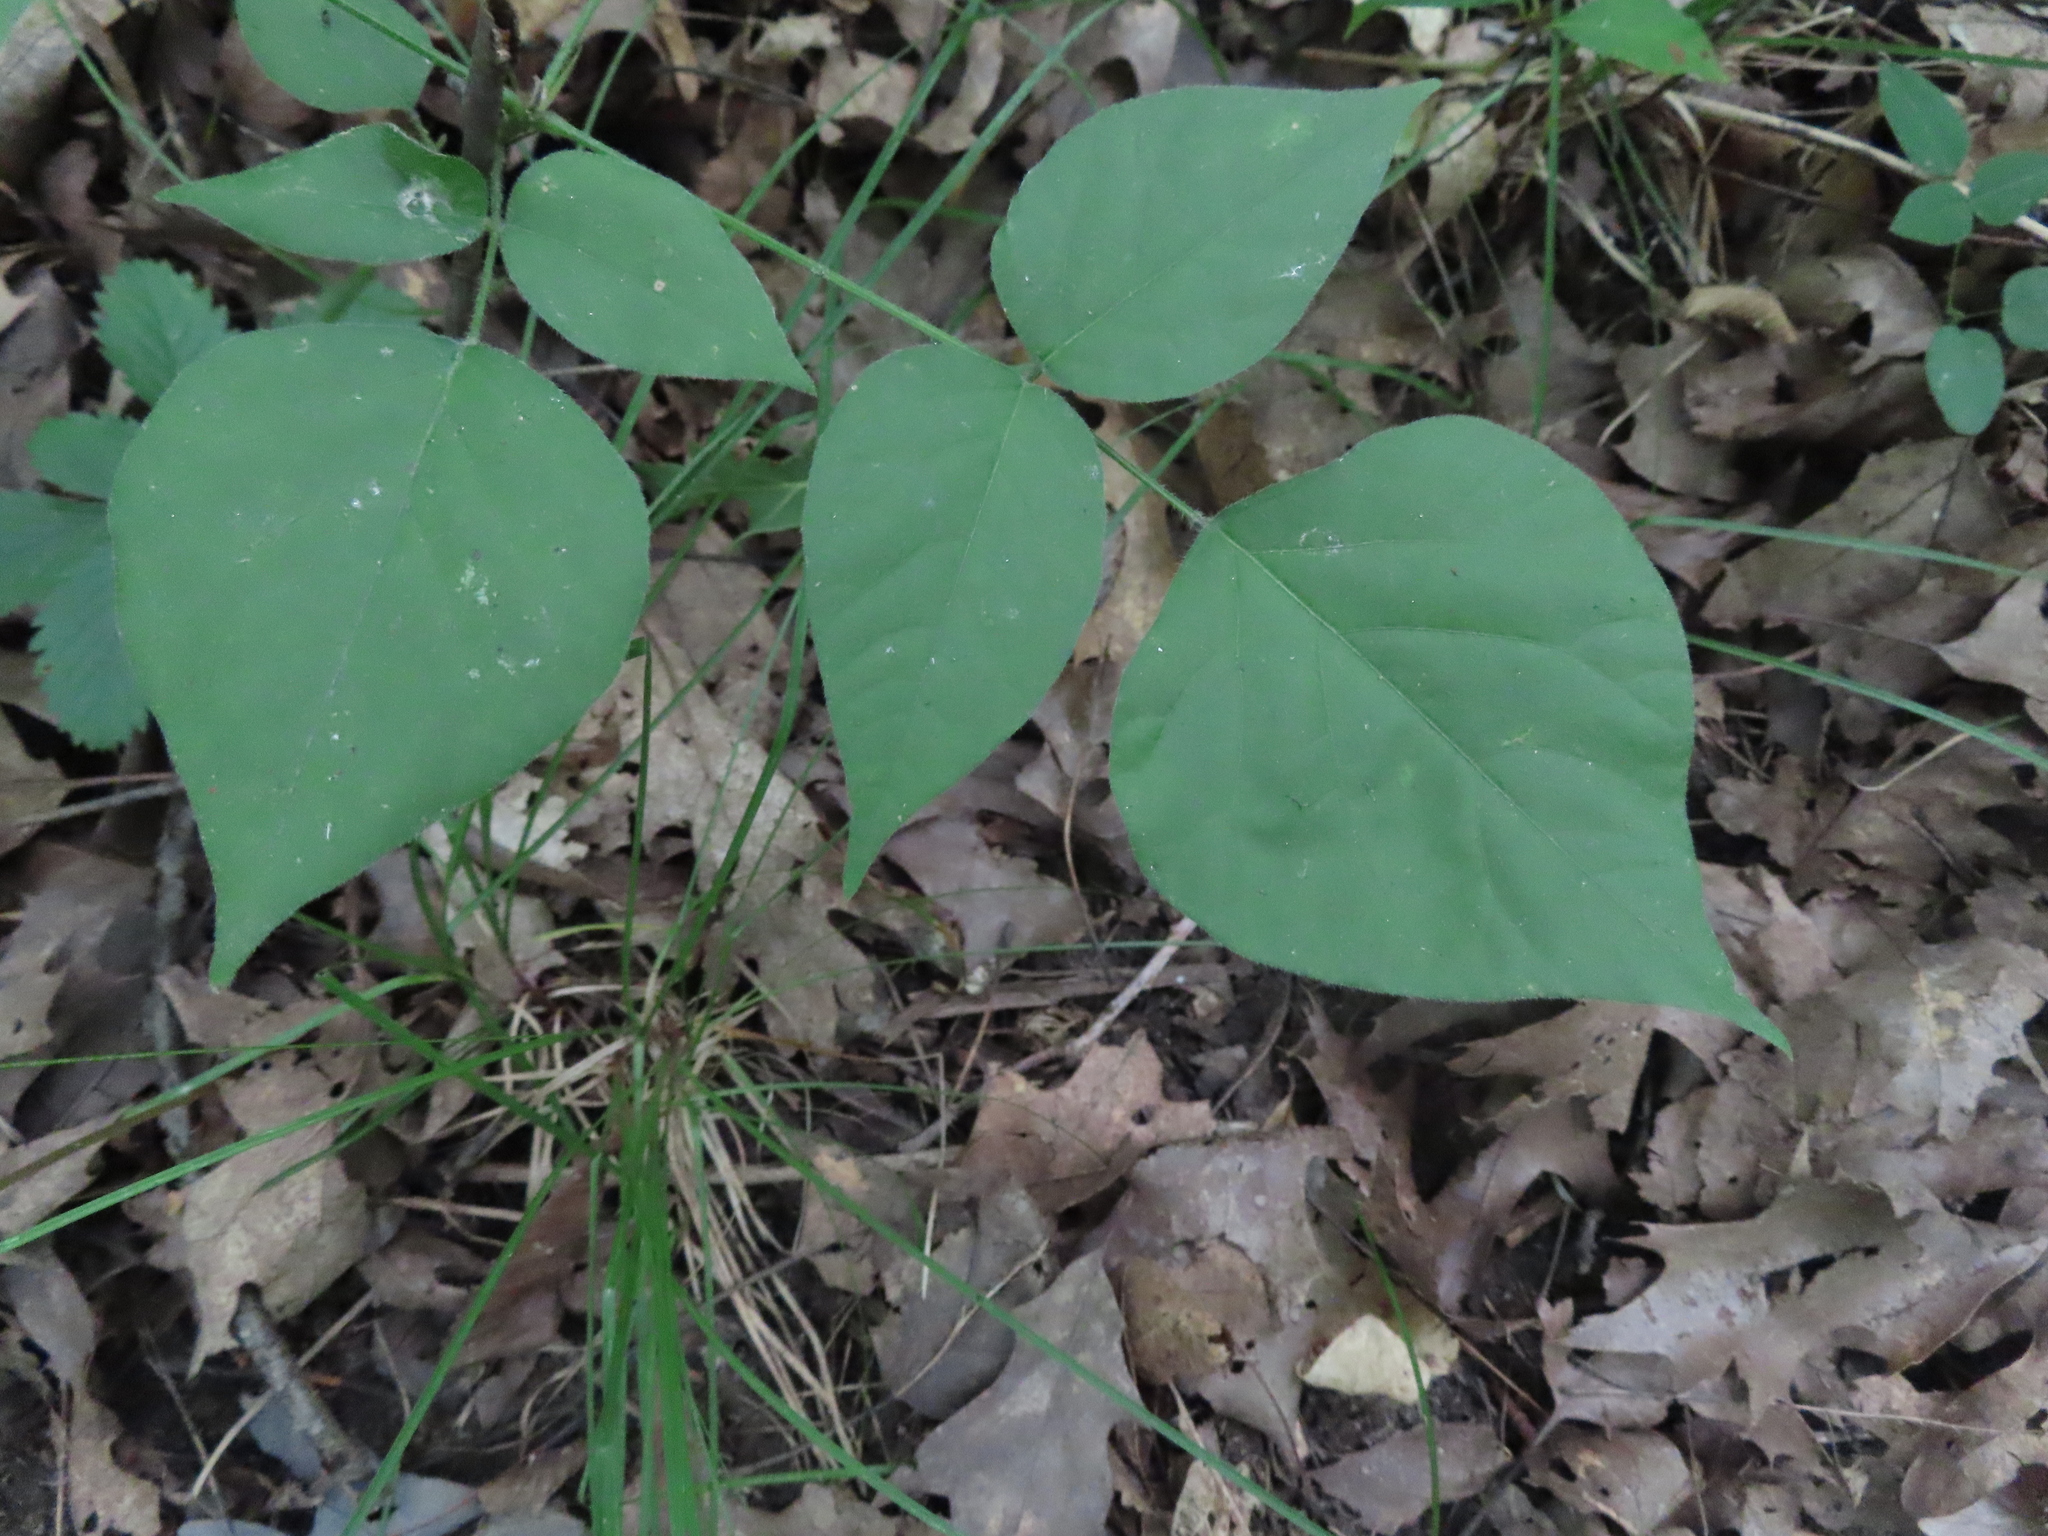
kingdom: Plantae
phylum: Tracheophyta
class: Magnoliopsida
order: Fabales
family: Fabaceae
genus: Hylodesmum
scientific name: Hylodesmum glutinosum
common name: Clustered-leaved tick-trefoil
